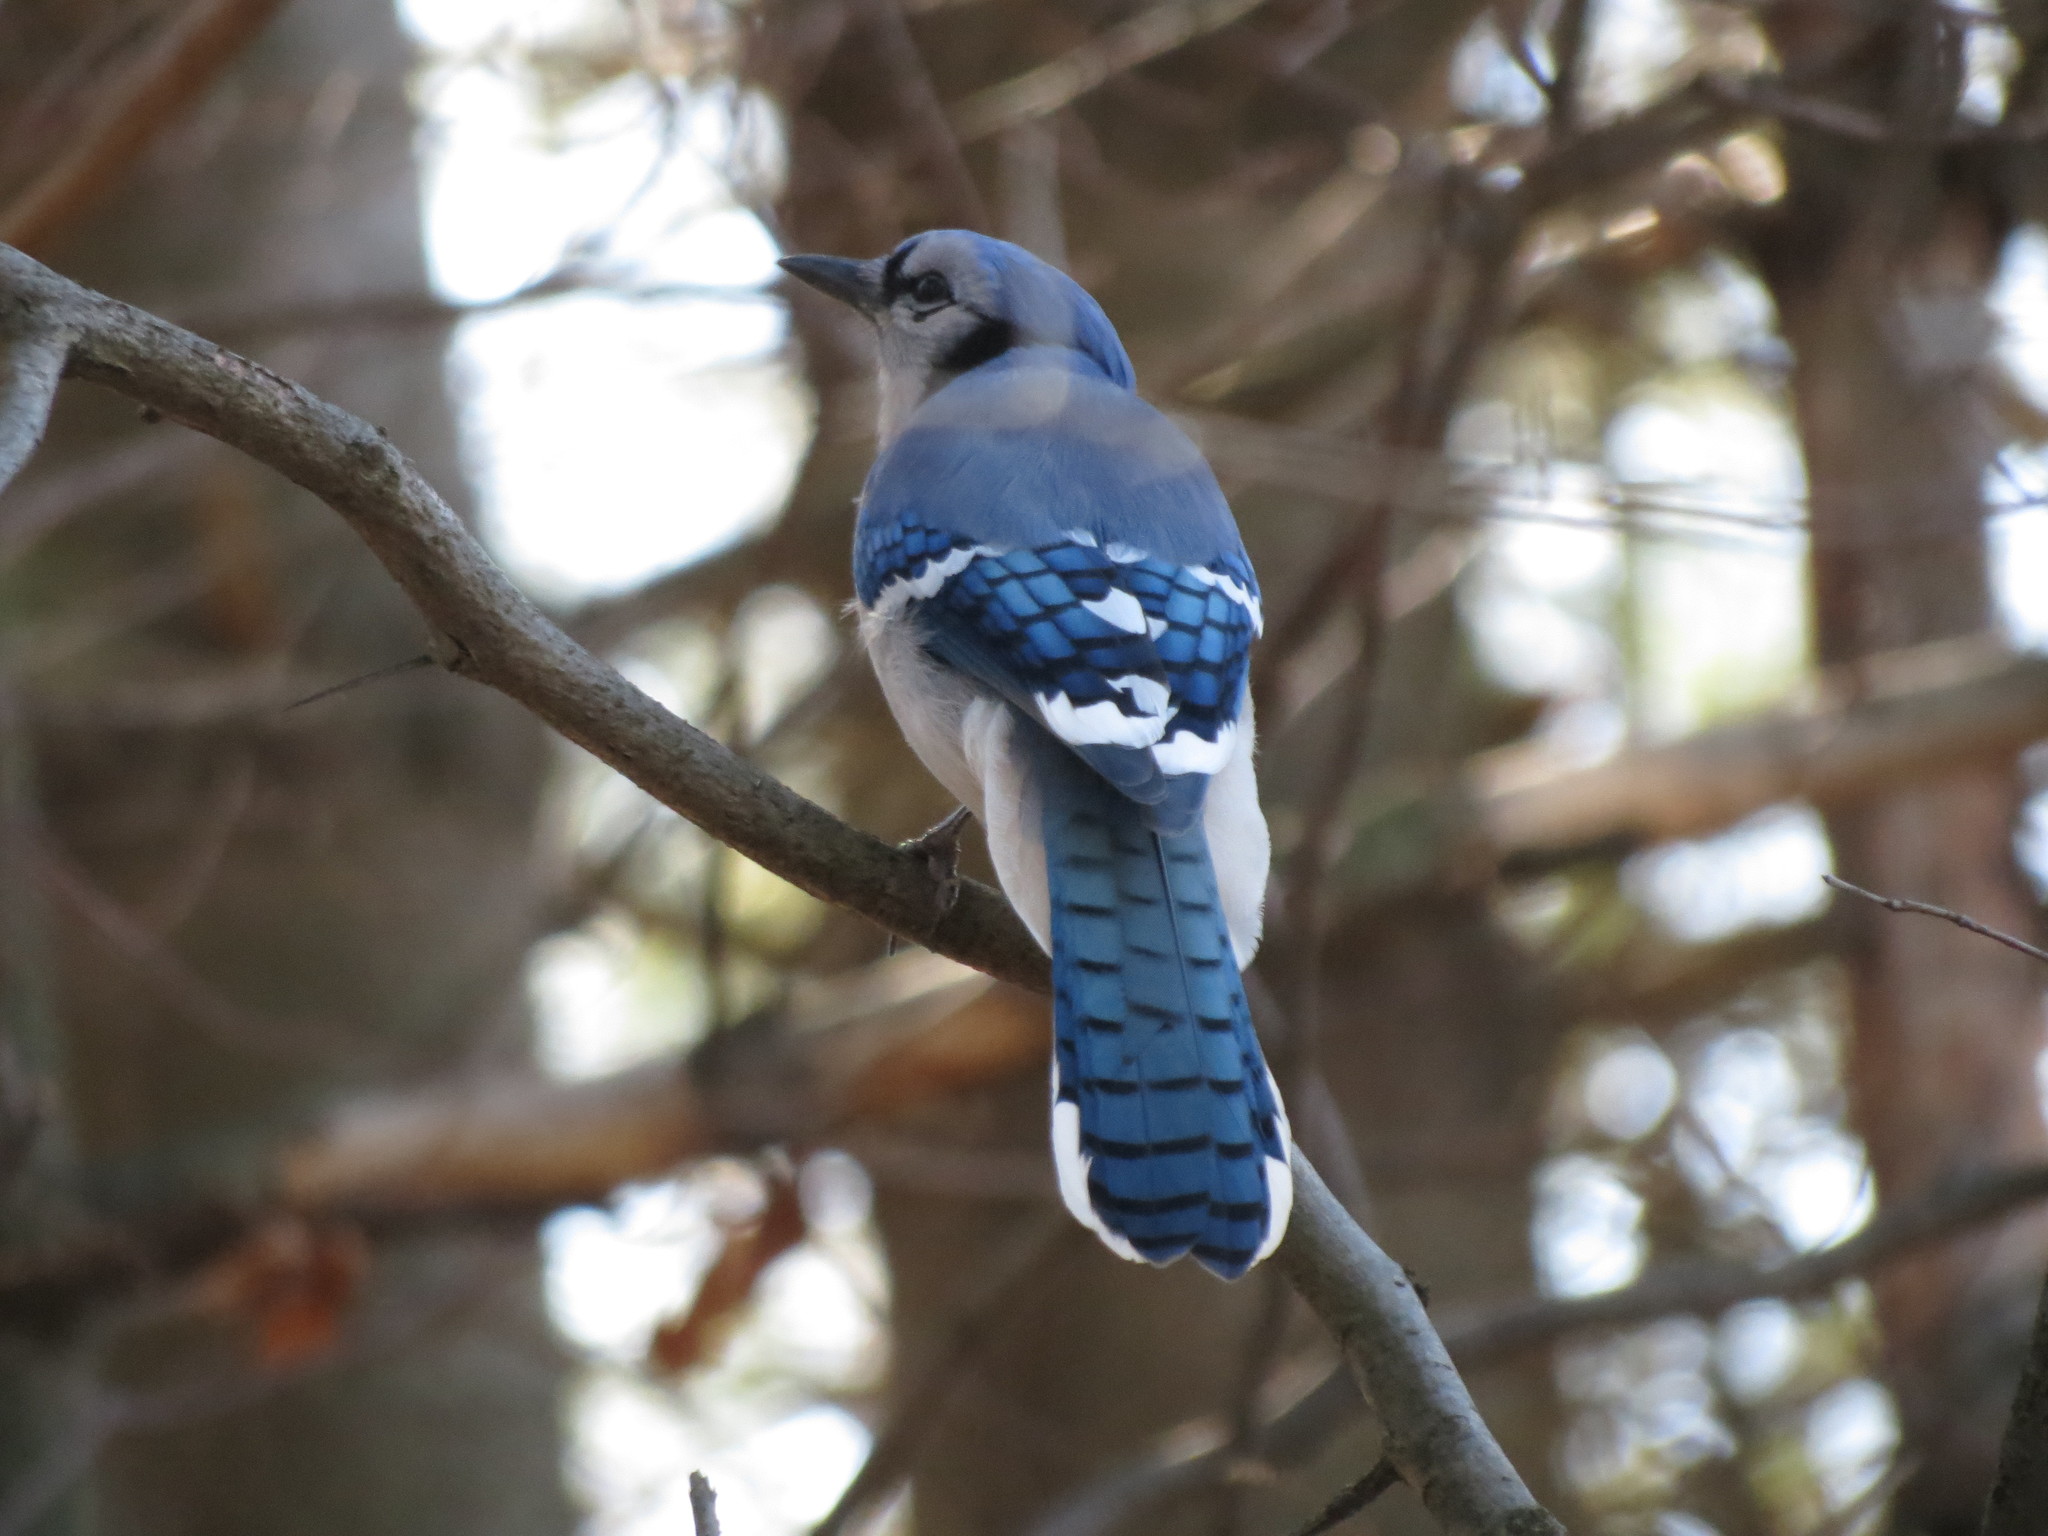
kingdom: Animalia
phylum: Chordata
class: Aves
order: Passeriformes
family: Corvidae
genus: Cyanocitta
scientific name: Cyanocitta cristata
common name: Blue jay
